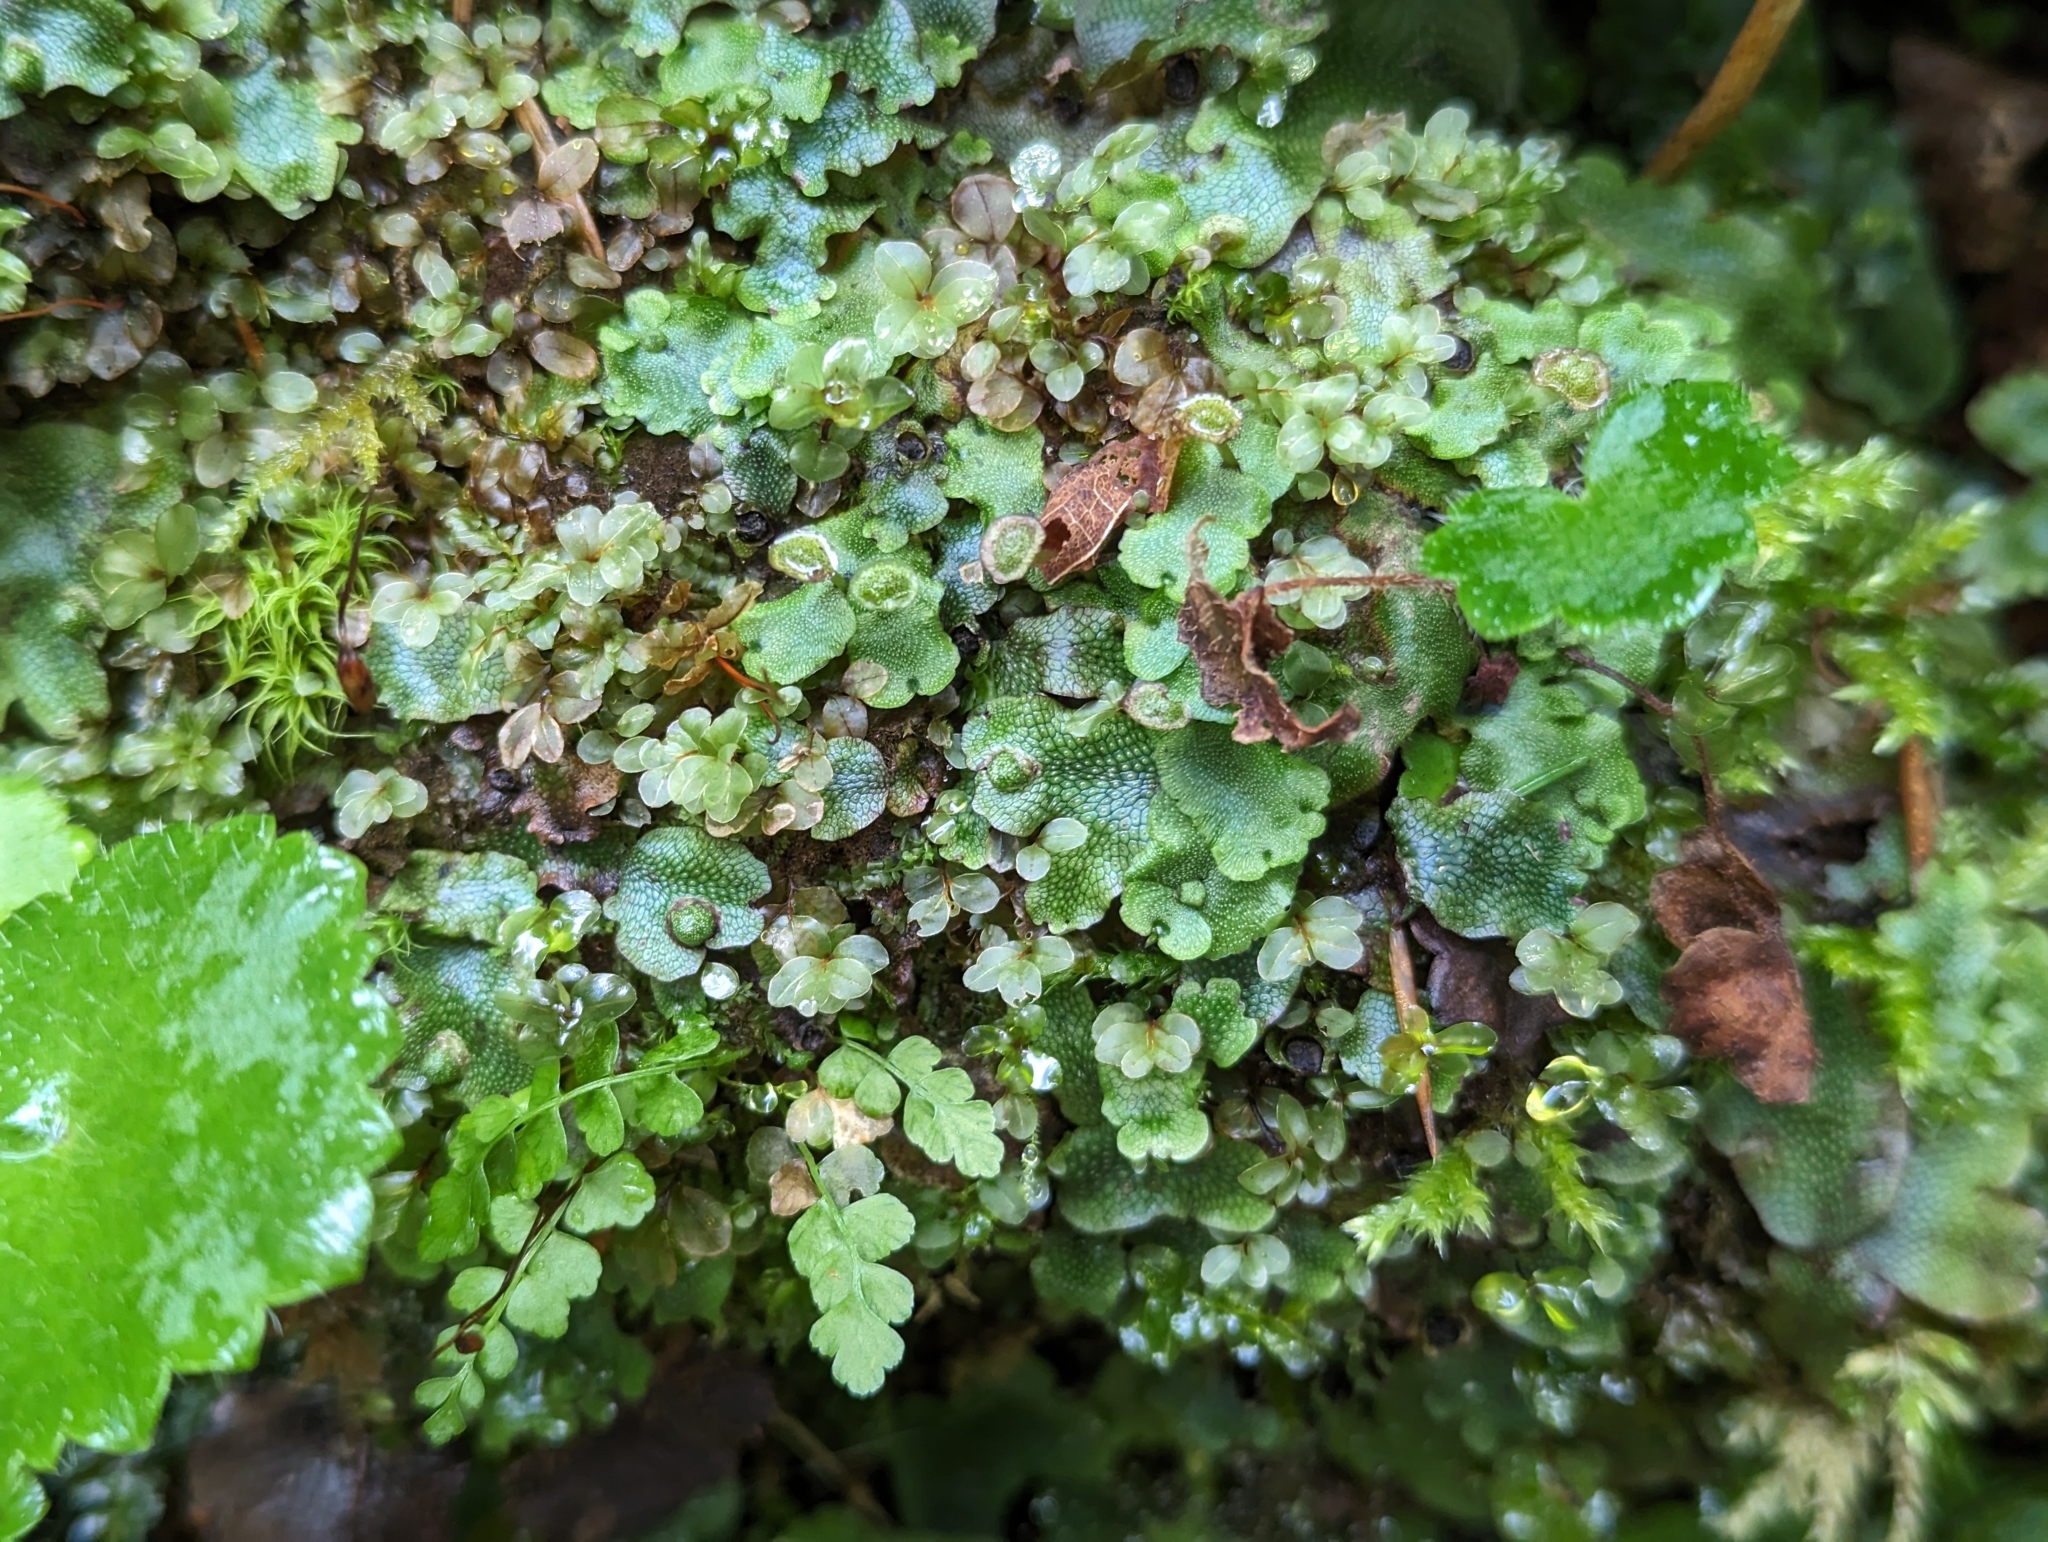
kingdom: Plantae
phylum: Marchantiophyta
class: Marchantiopsida
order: Marchantiales
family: Marchantiaceae
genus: Marchantia
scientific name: Marchantia quadrata
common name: Narrow mushroom-headed liverwort
